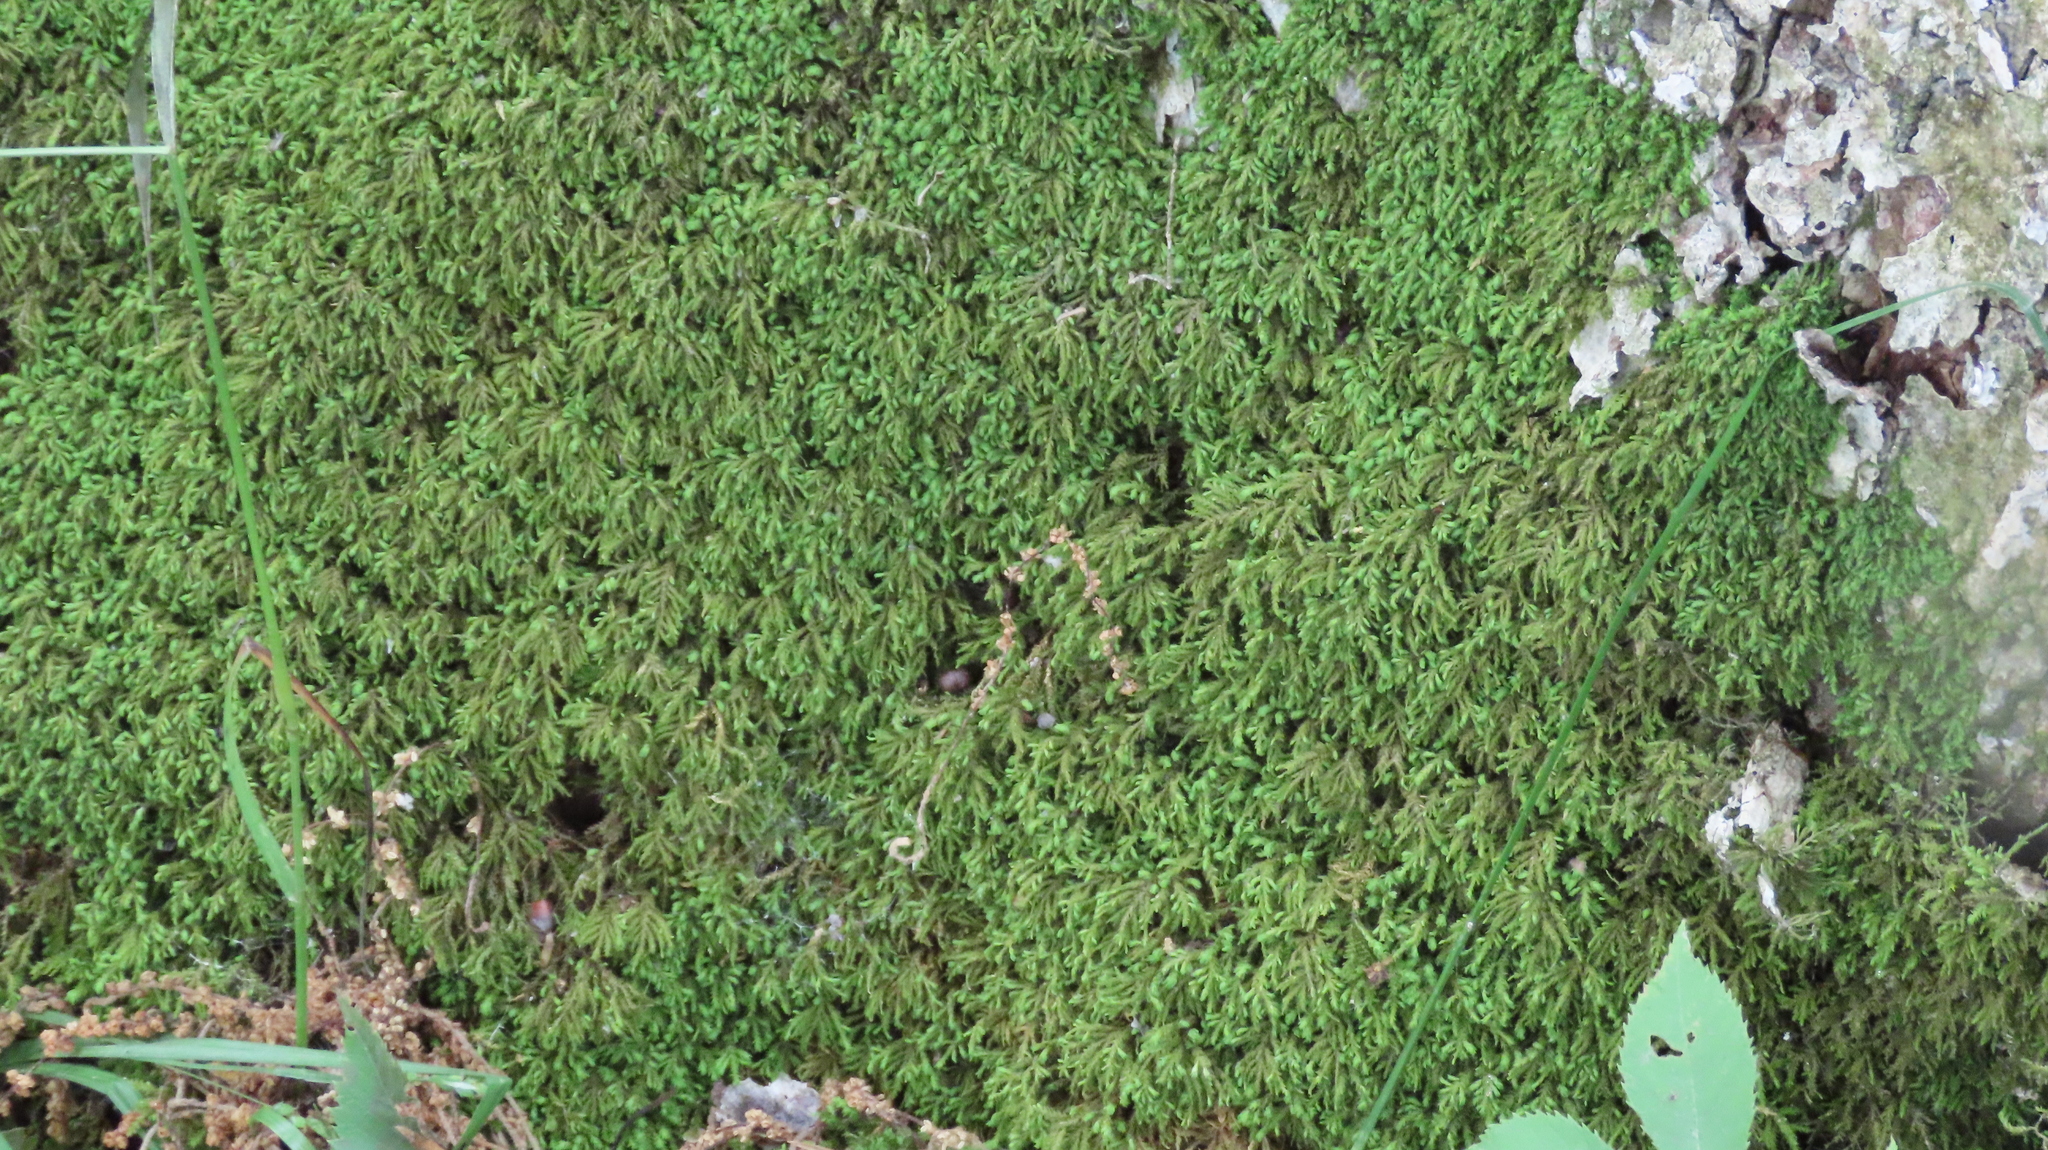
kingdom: Plantae
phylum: Bryophyta
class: Bryopsida
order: Hypnales
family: Neckeraceae
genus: Pseudanomodon
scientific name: Pseudanomodon attenuatus
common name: Tree-skirt moss
